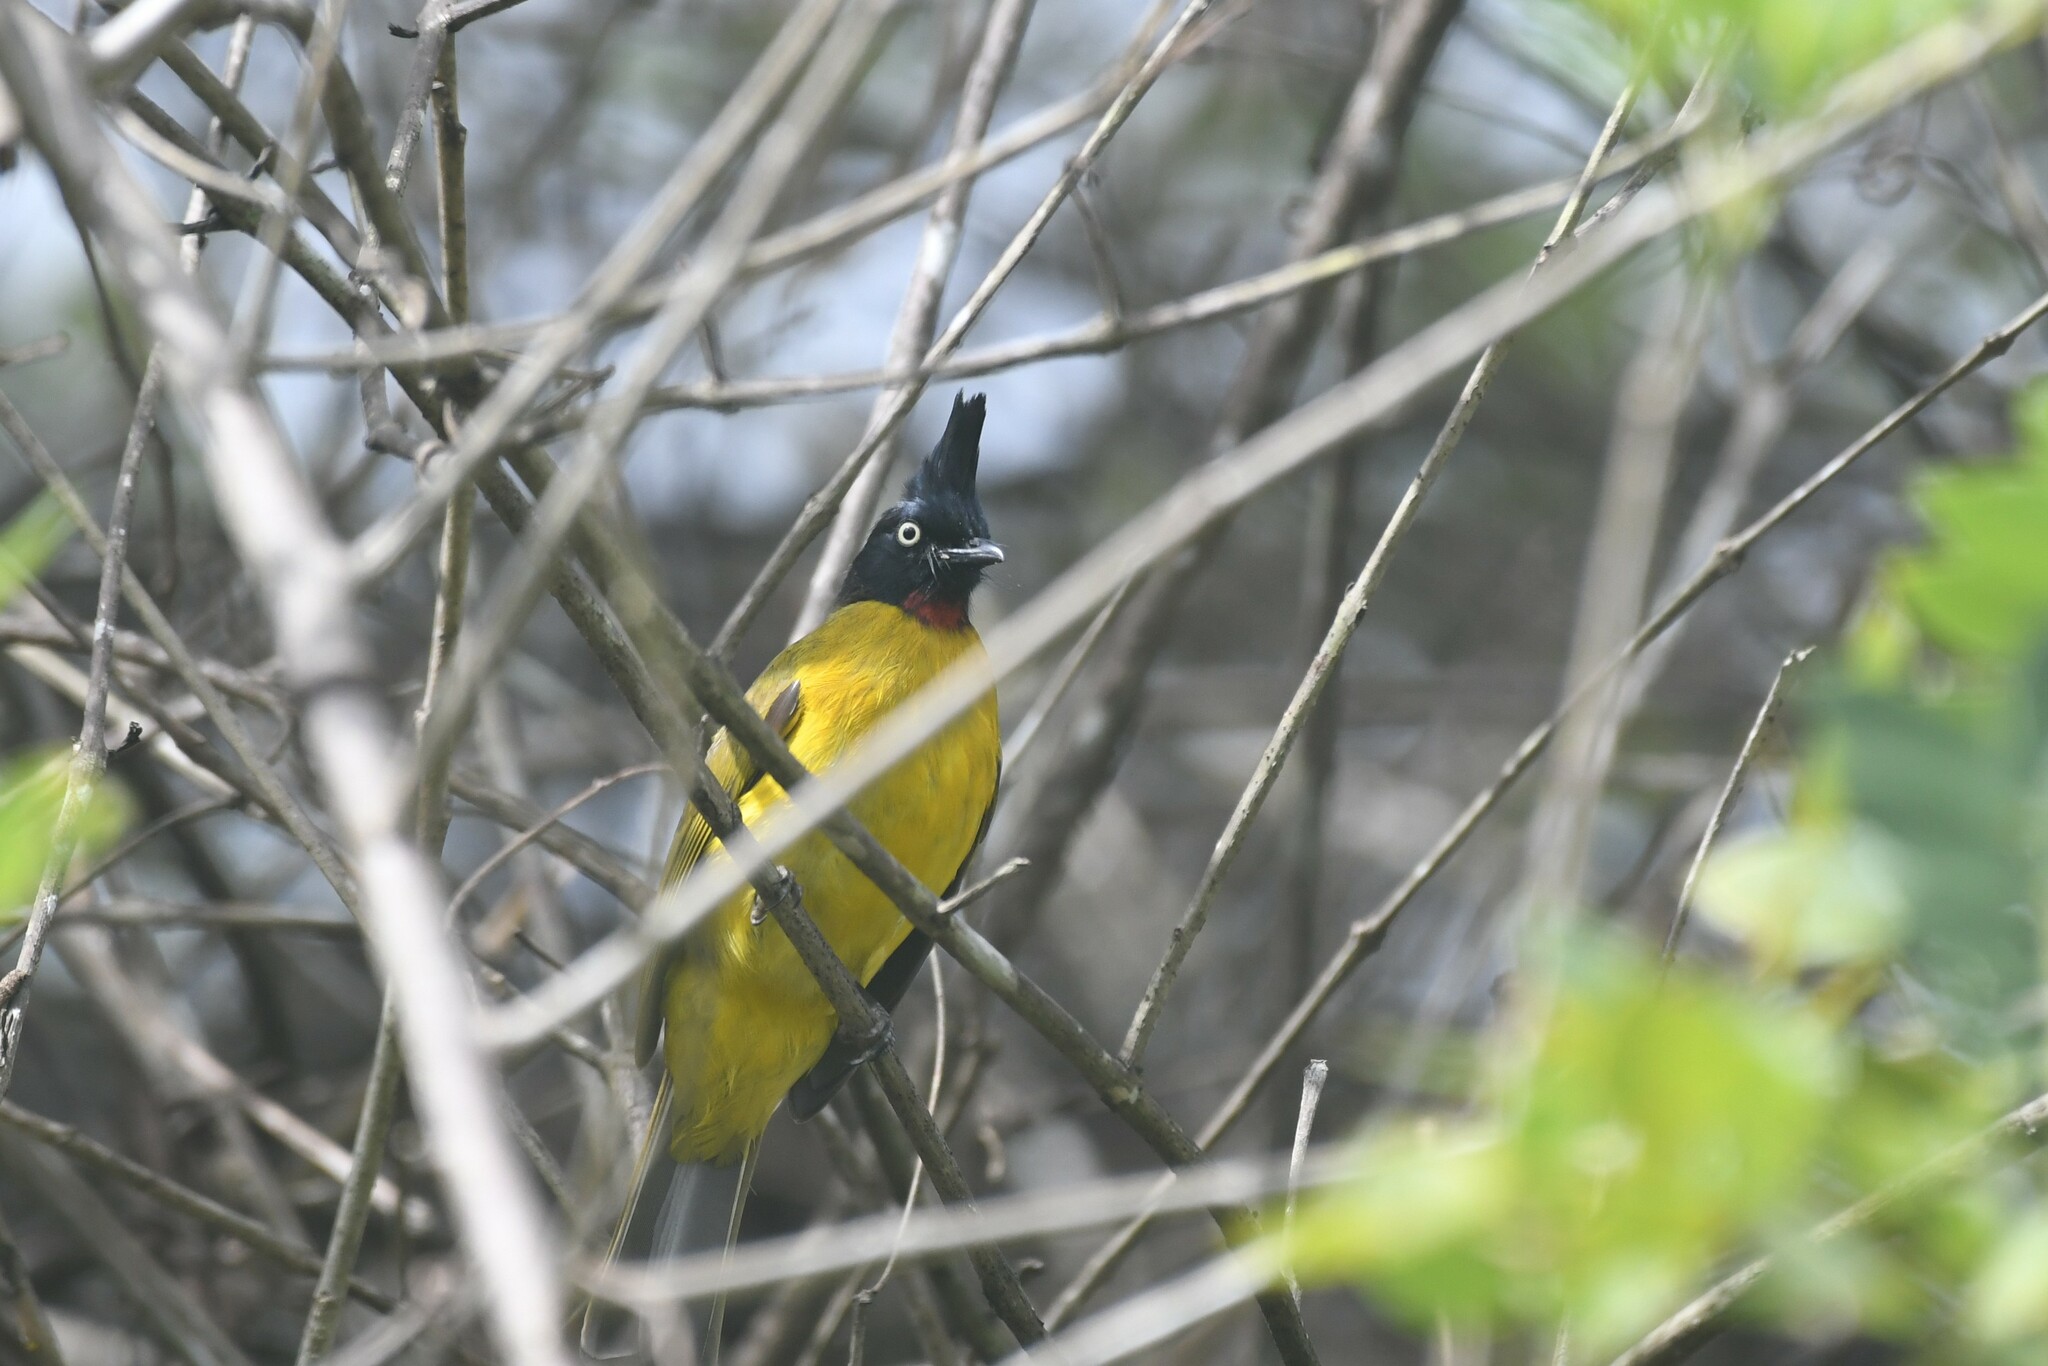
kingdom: Animalia
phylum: Chordata
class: Aves
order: Passeriformes
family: Pycnonotidae
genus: Pycnonotus
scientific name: Pycnonotus flaviventris
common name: Black-crested bulbul
